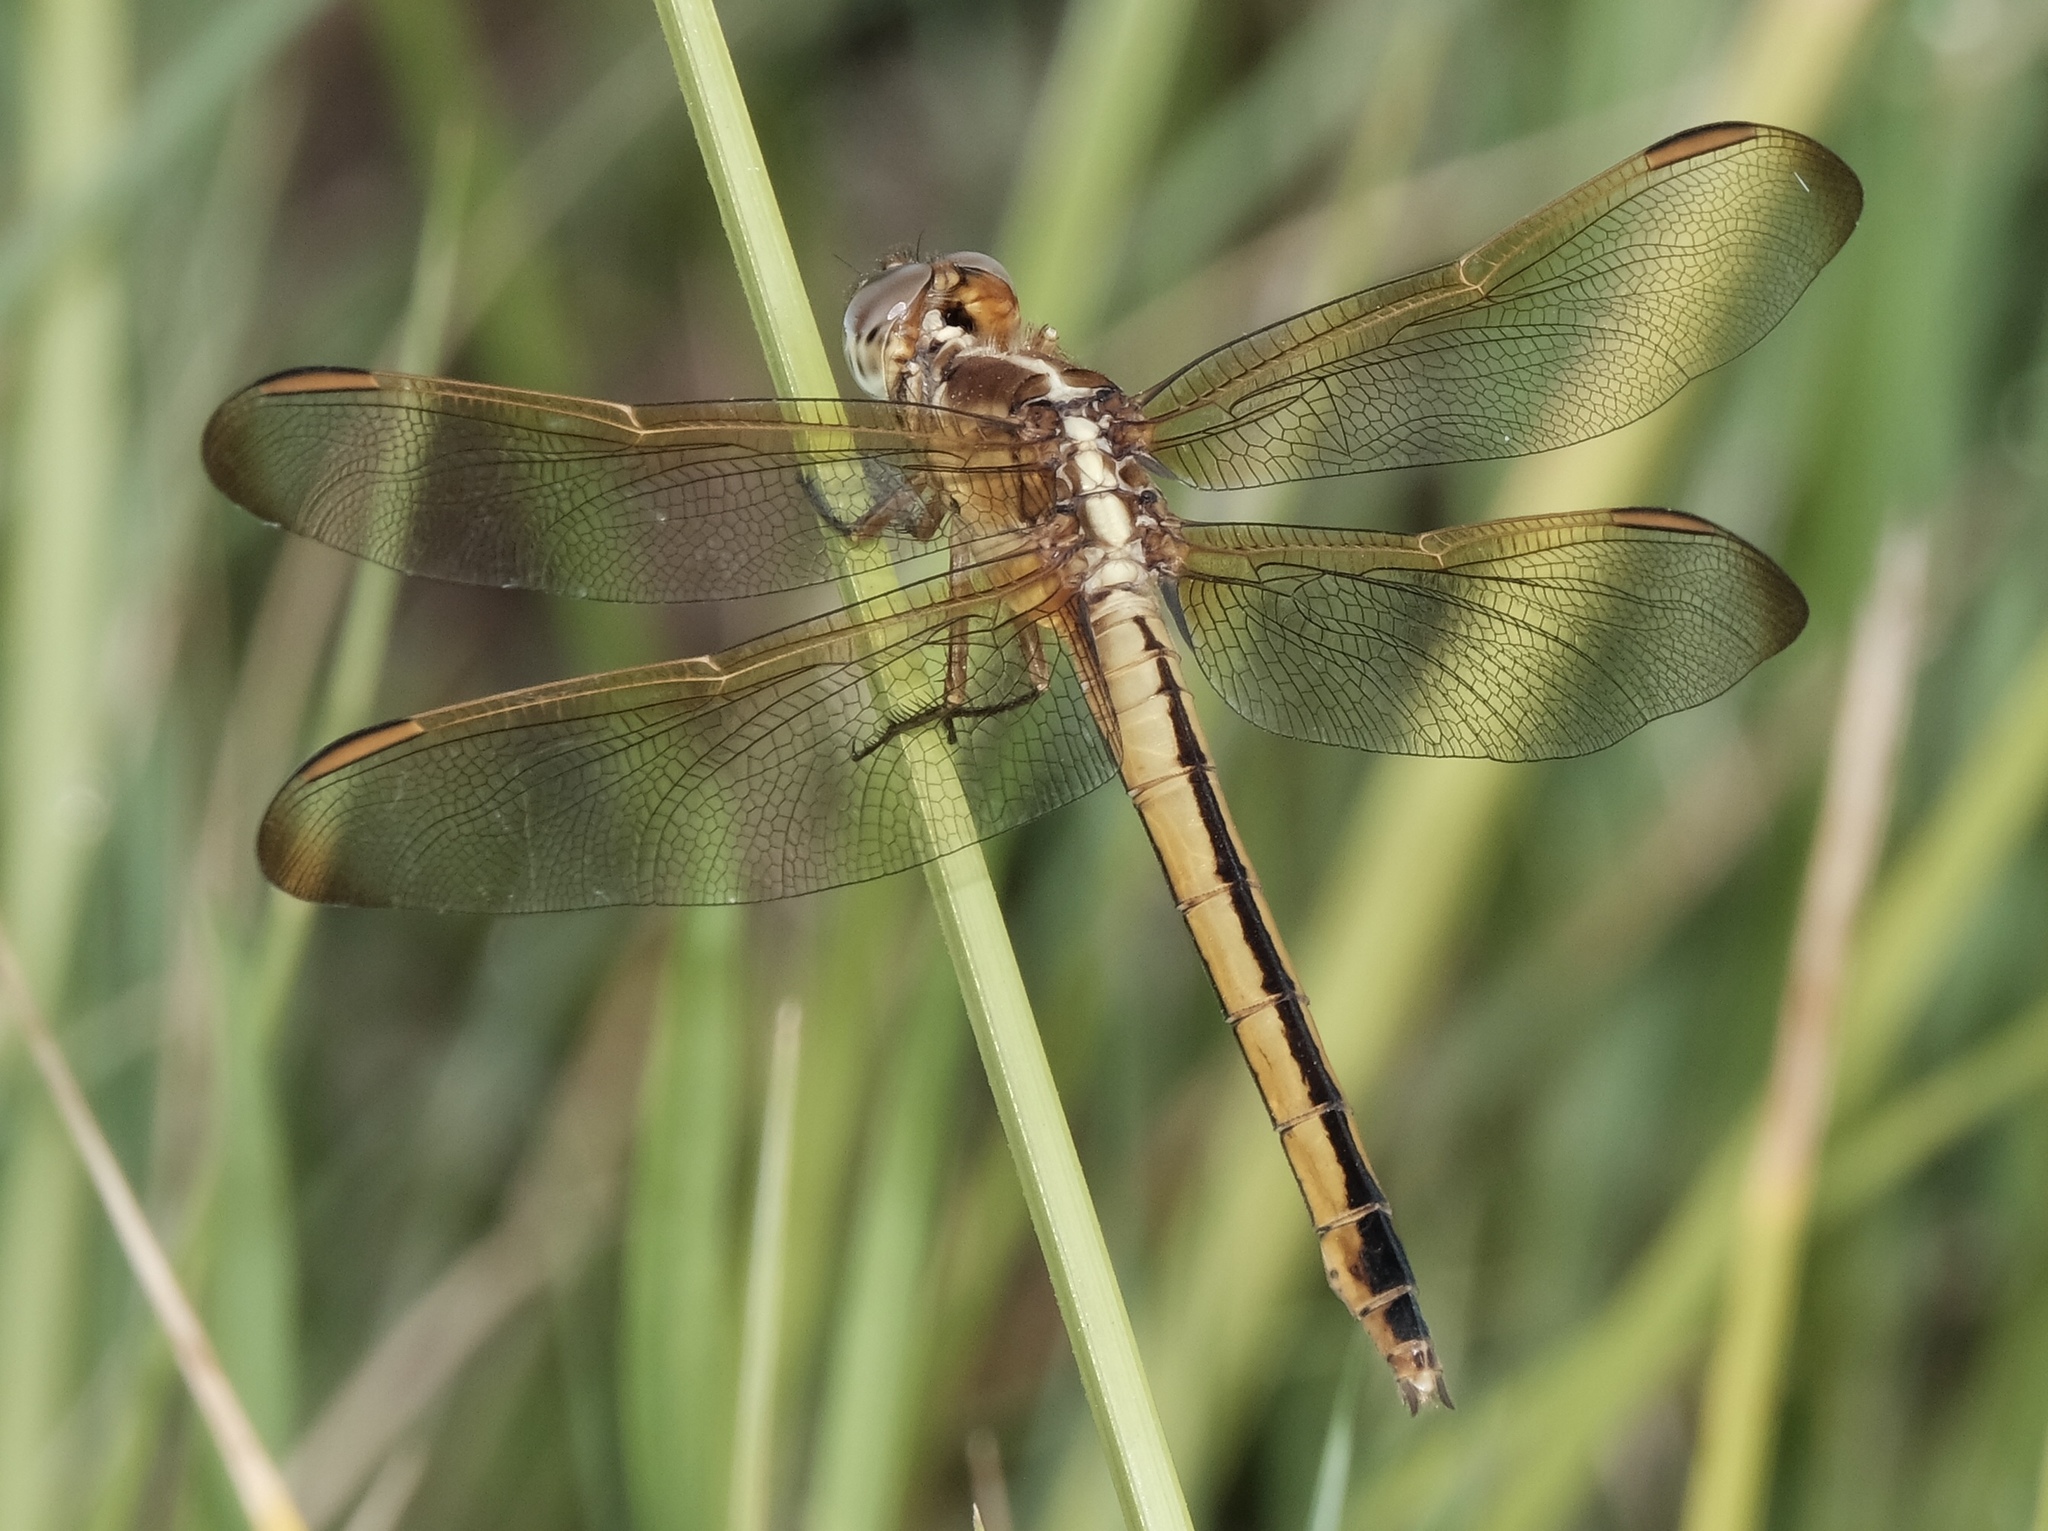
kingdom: Animalia
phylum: Arthropoda
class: Insecta
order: Odonata
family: Libellulidae
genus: Libellula
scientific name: Libellula needhami
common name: Needham's skimmer
